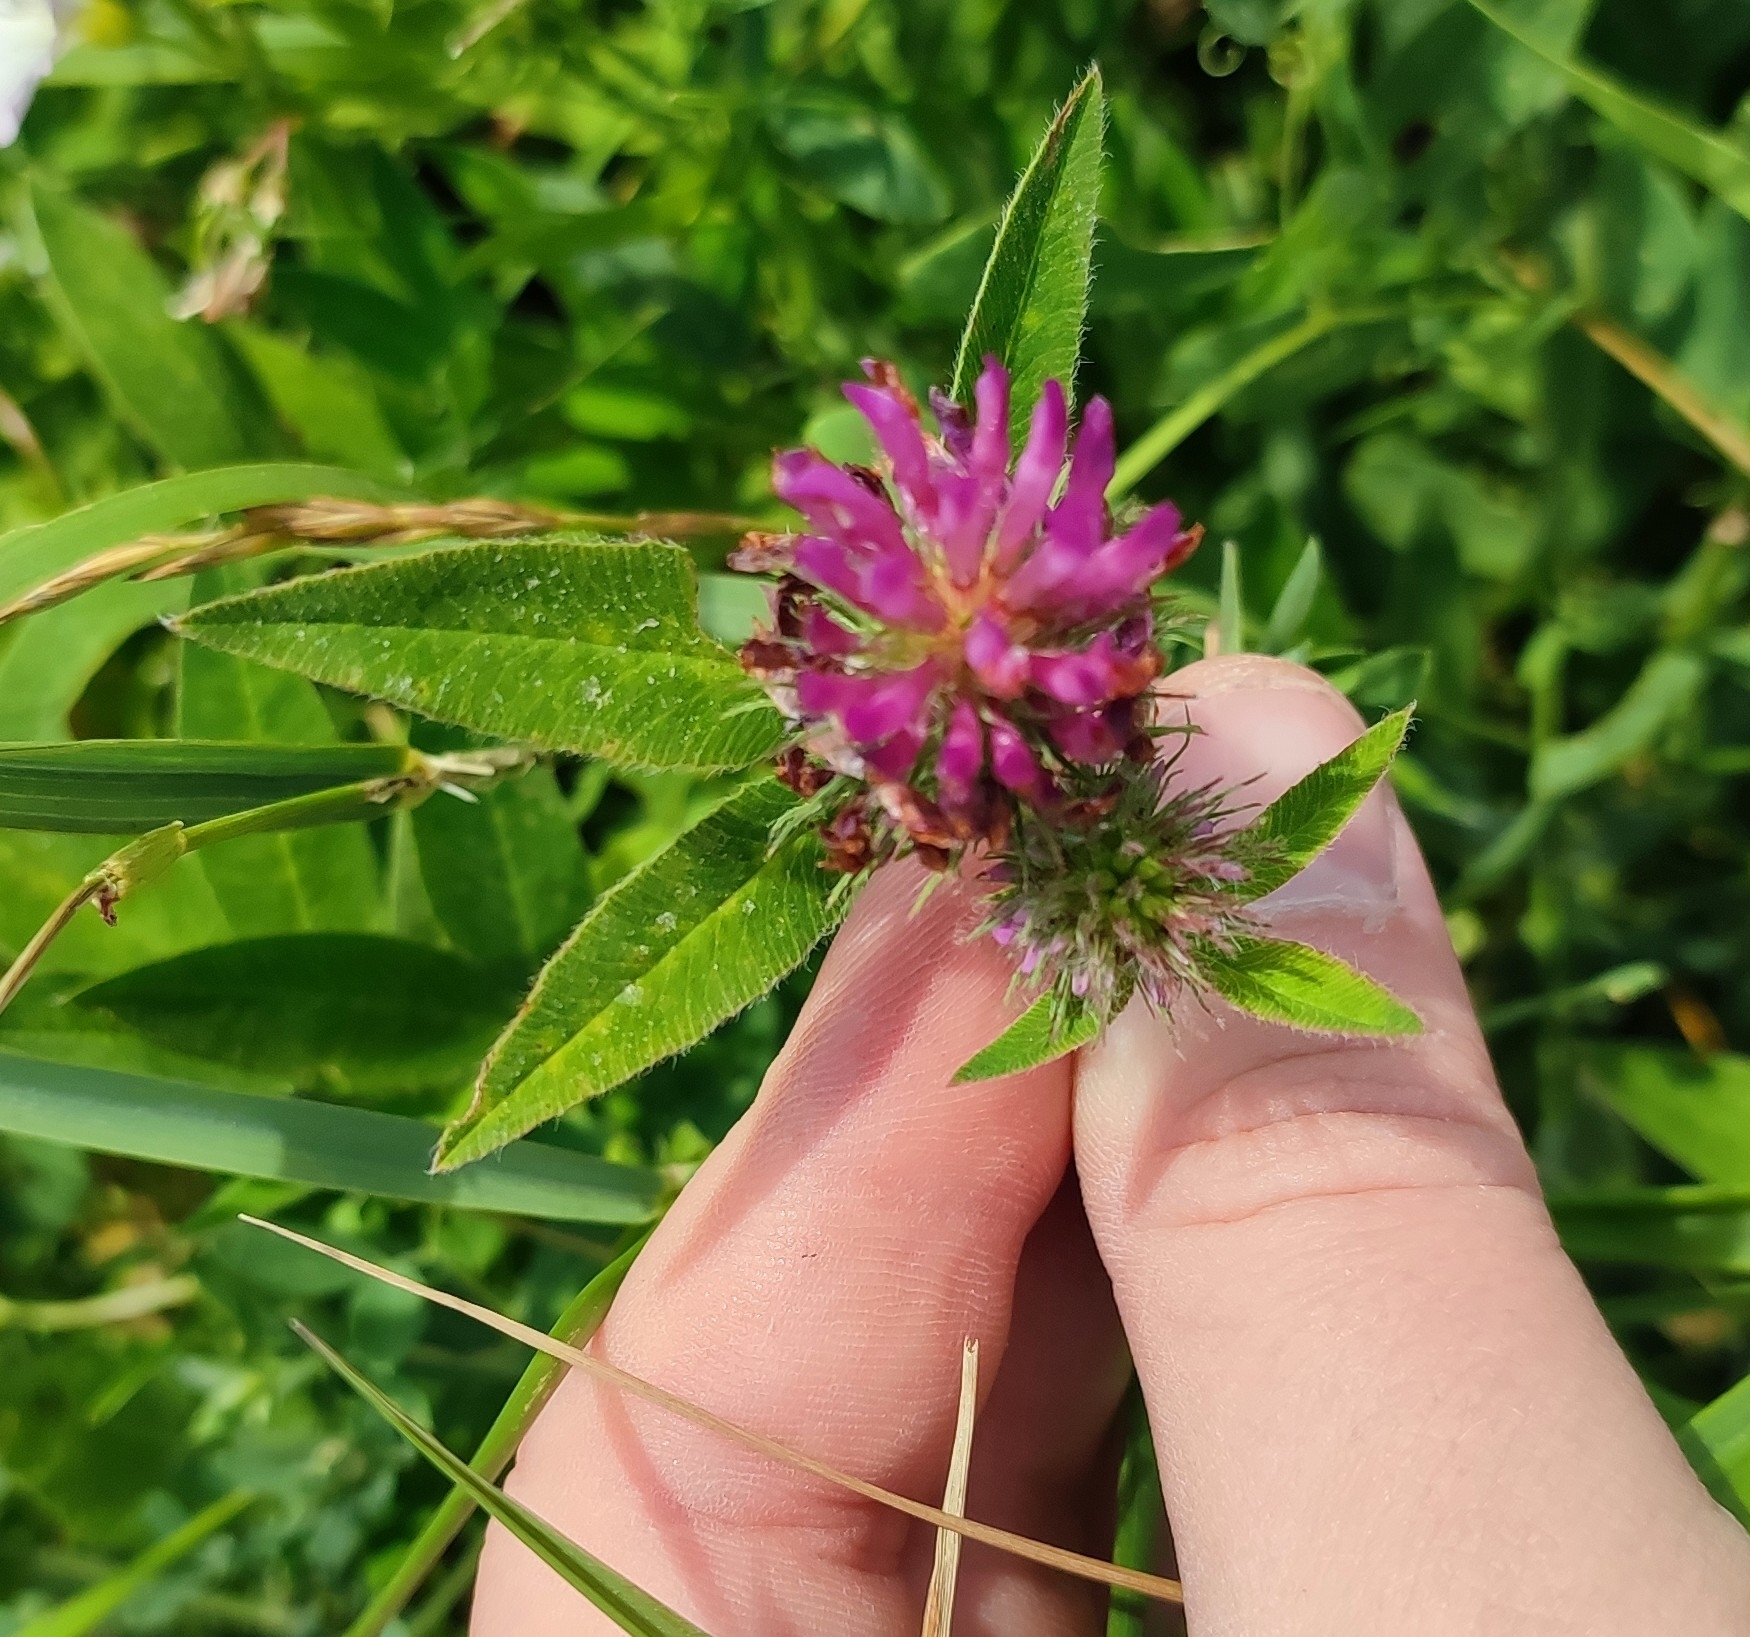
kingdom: Plantae
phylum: Tracheophyta
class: Magnoliopsida
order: Fabales
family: Fabaceae
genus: Trifolium
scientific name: Trifolium medium
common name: Zigzag clover
